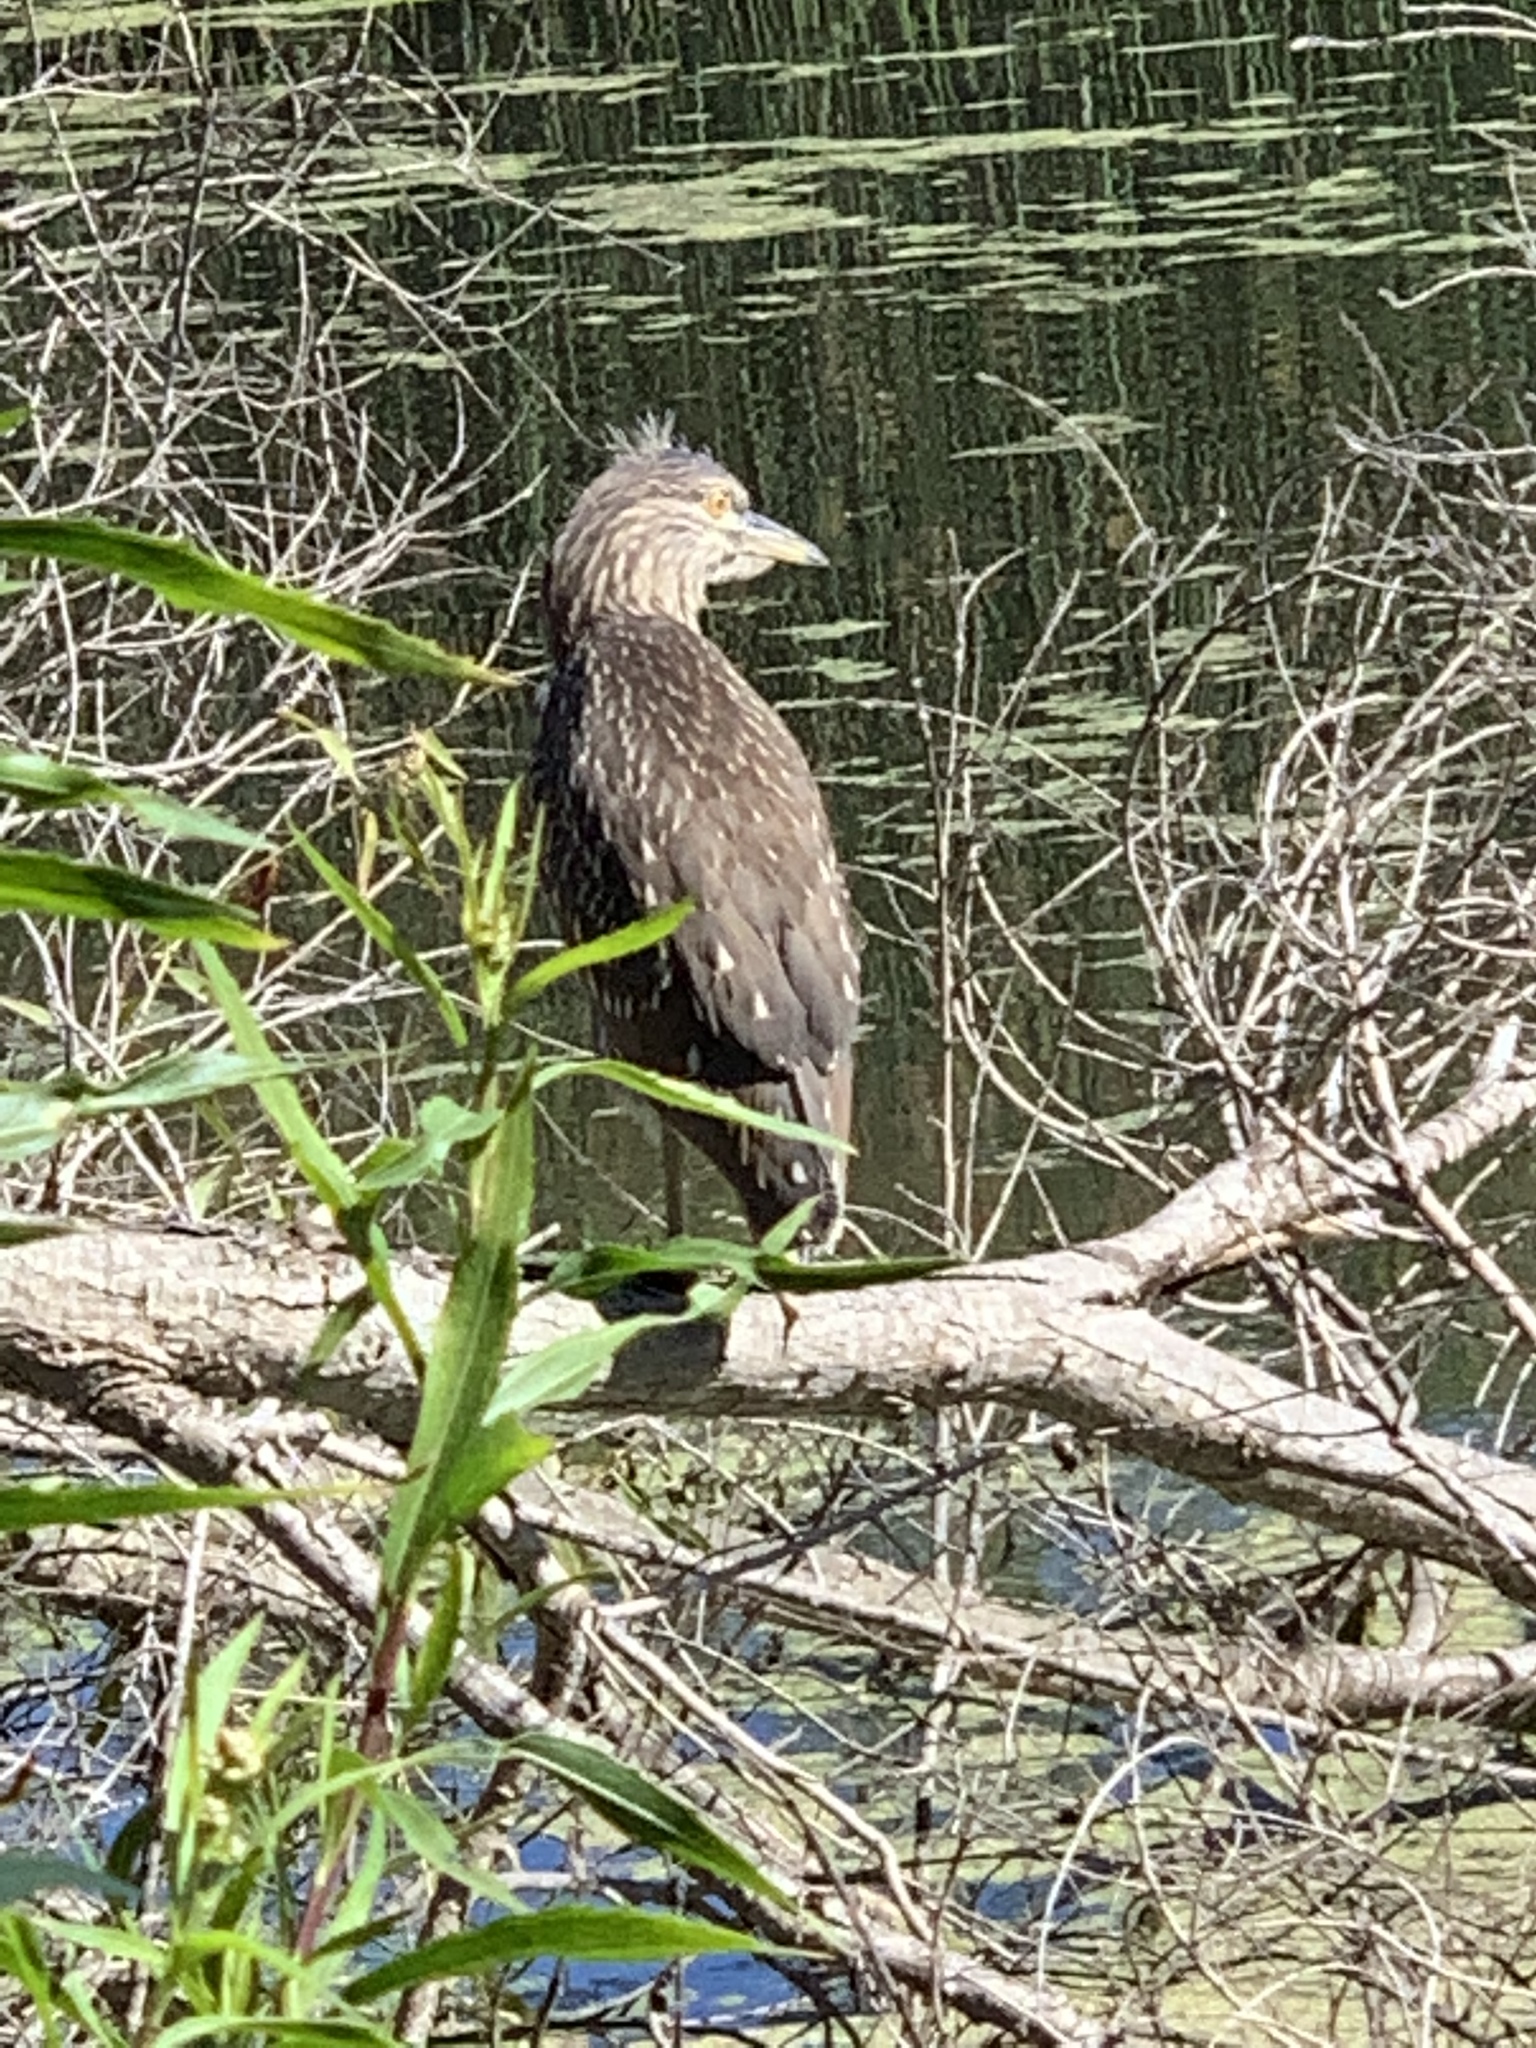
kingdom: Animalia
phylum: Chordata
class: Aves
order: Pelecaniformes
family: Ardeidae
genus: Nycticorax
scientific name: Nycticorax nycticorax
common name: Black-crowned night heron
